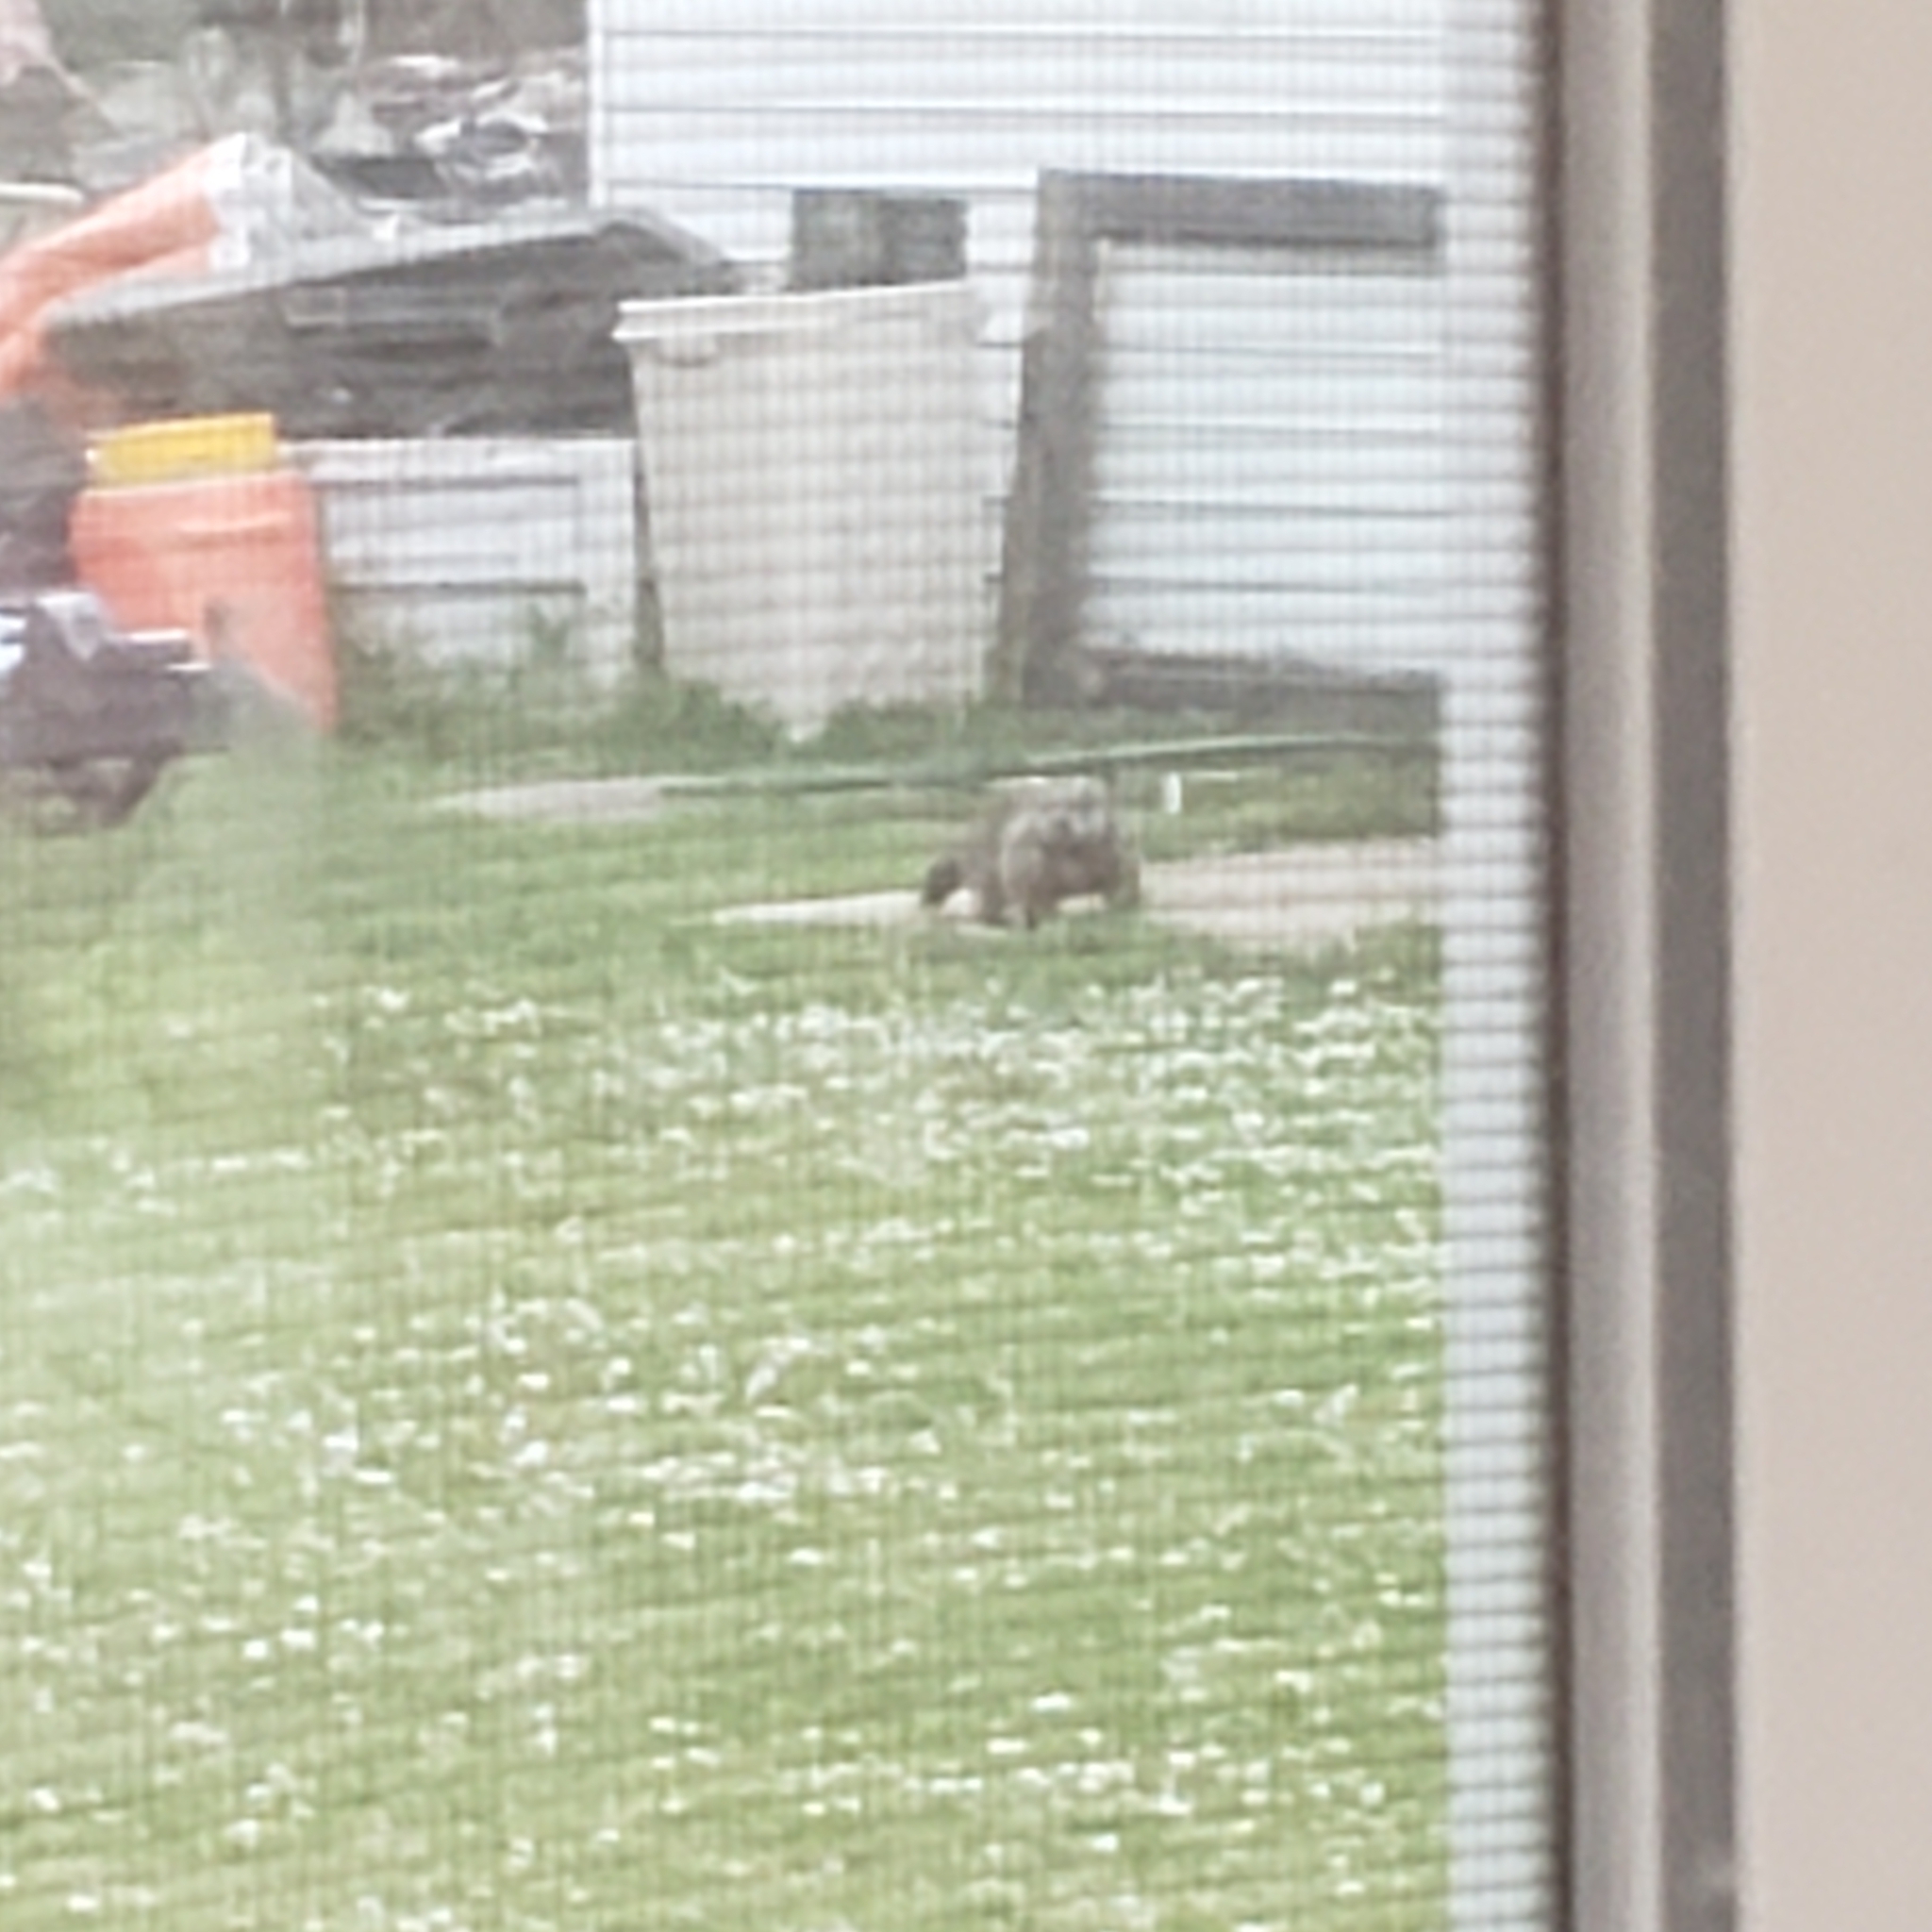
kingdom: Animalia
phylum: Chordata
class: Mammalia
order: Rodentia
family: Sciuridae
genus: Marmota
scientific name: Marmota monax
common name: Groundhog
